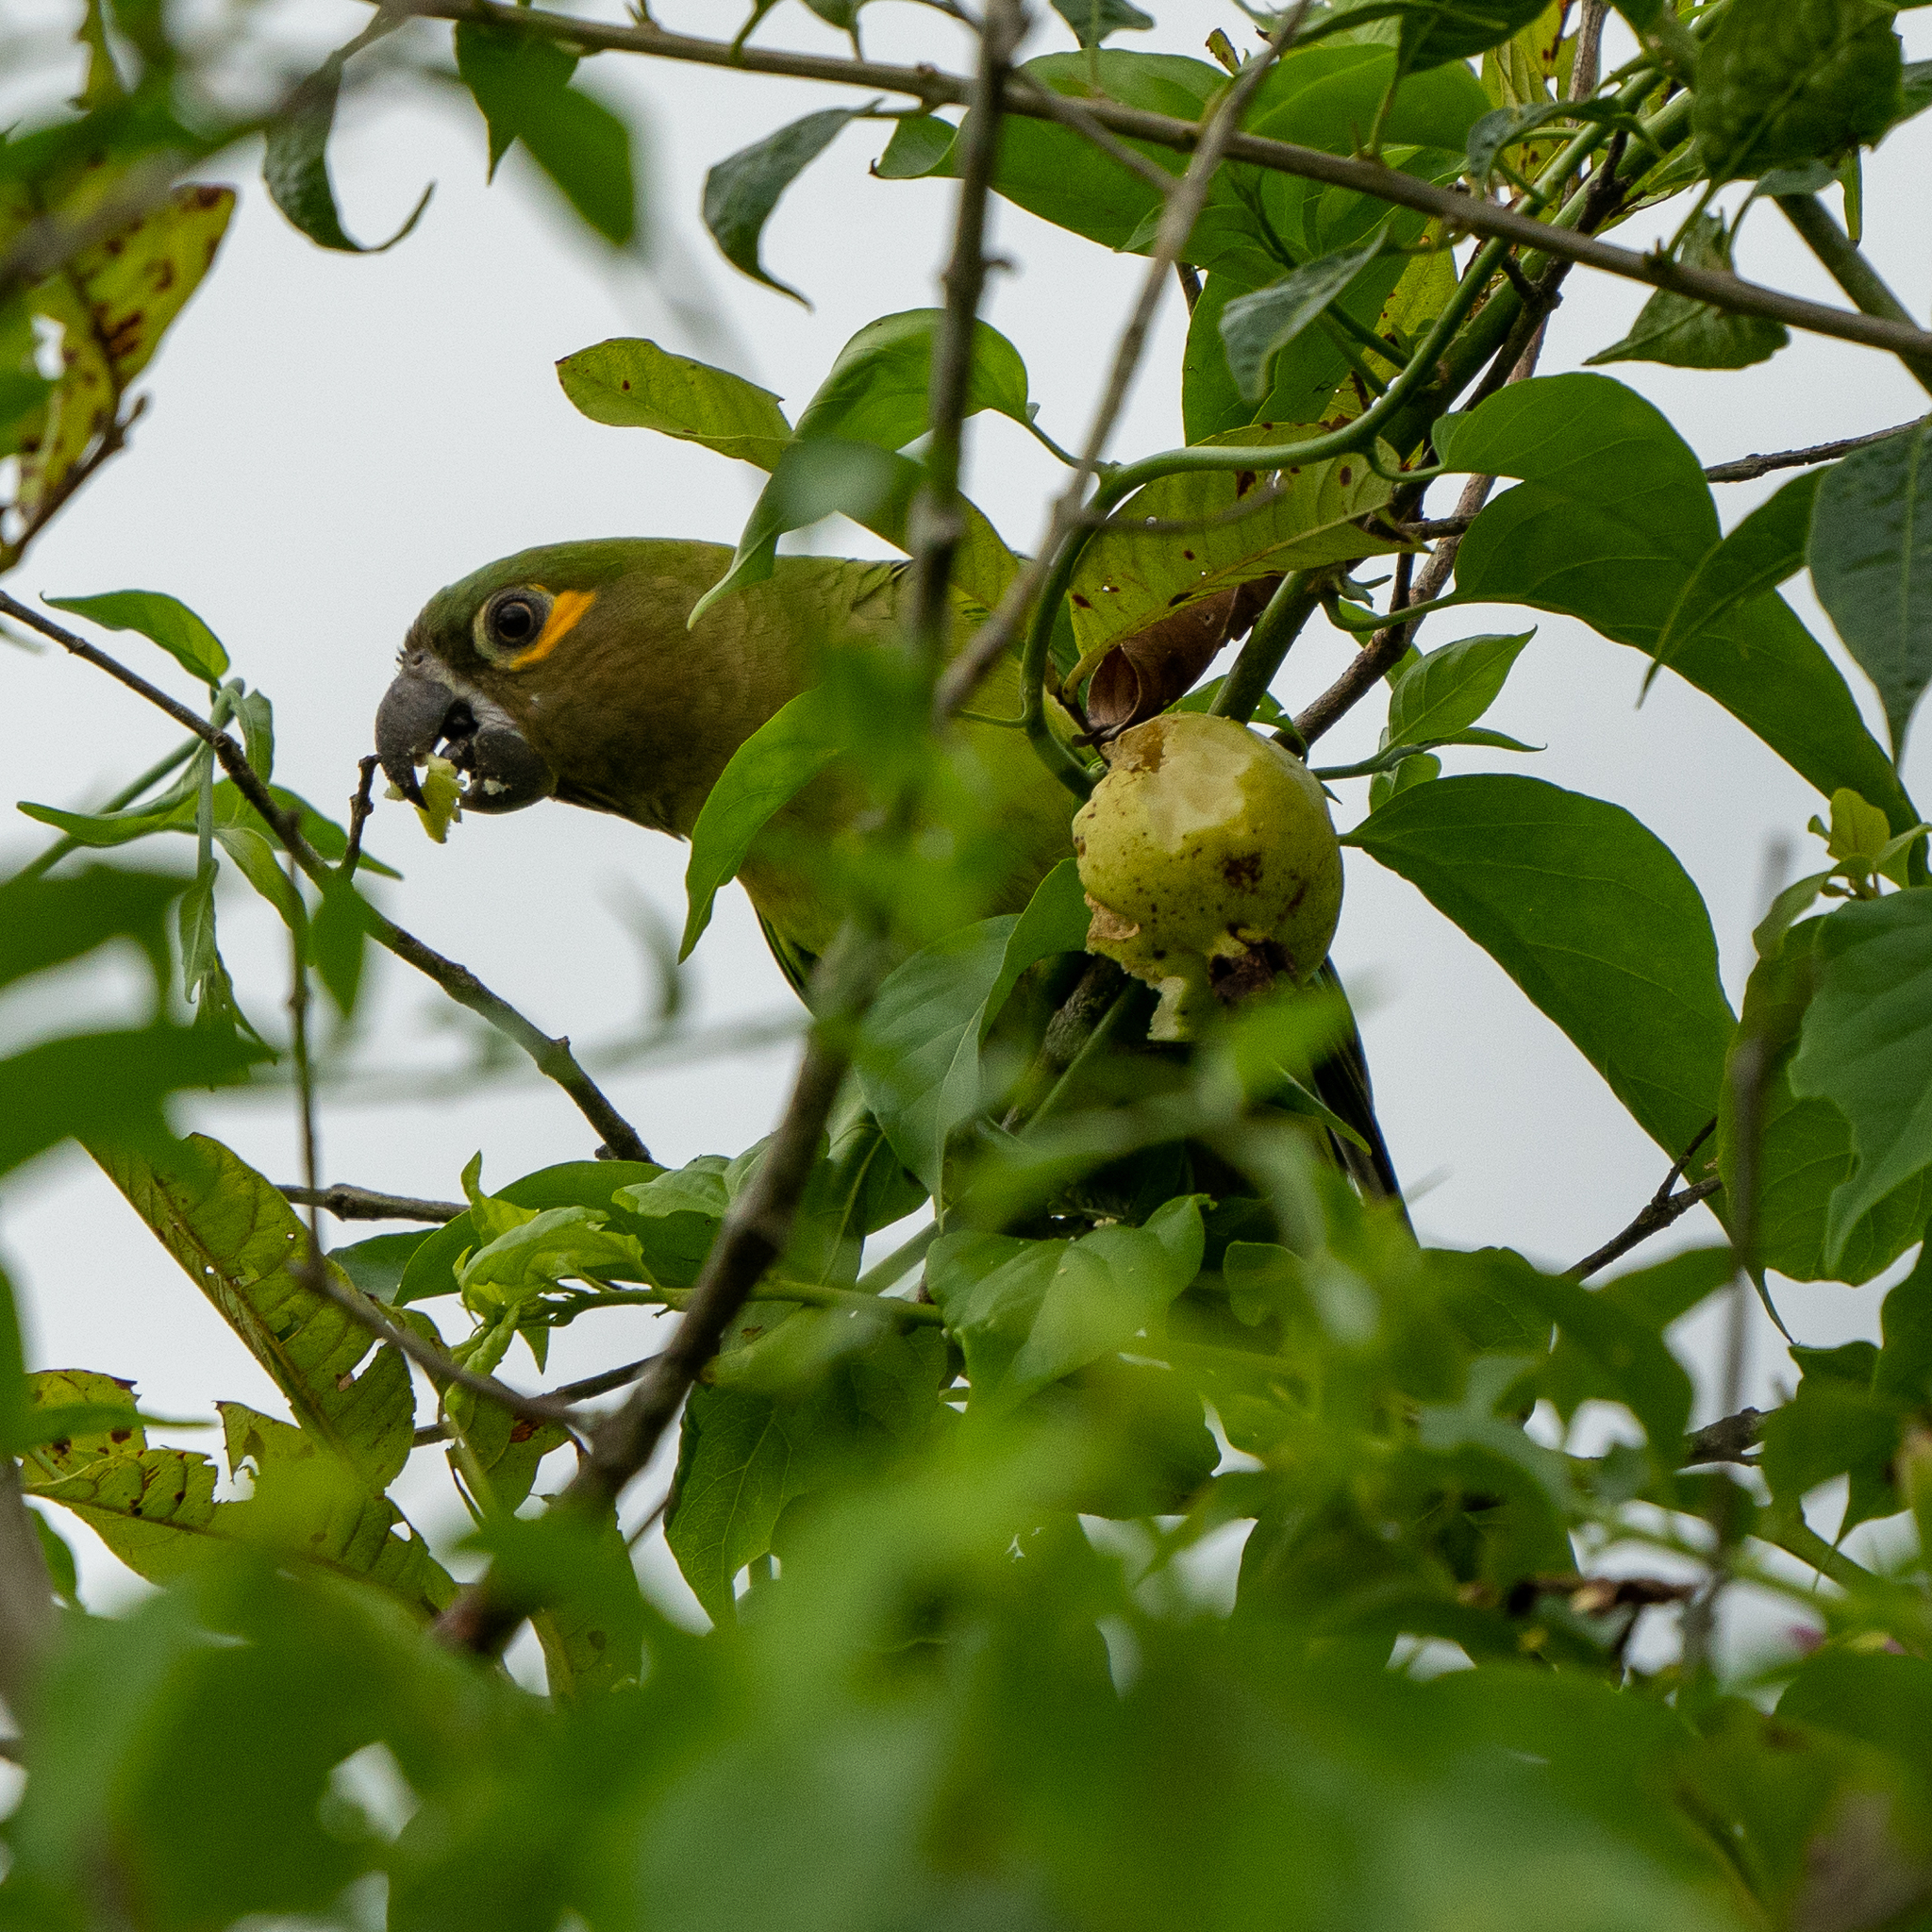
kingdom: Animalia
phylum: Chordata
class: Aves
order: Psittaciformes
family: Psittacidae
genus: Aratinga
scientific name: Aratinga pertinax
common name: Brown-throated parakeet
